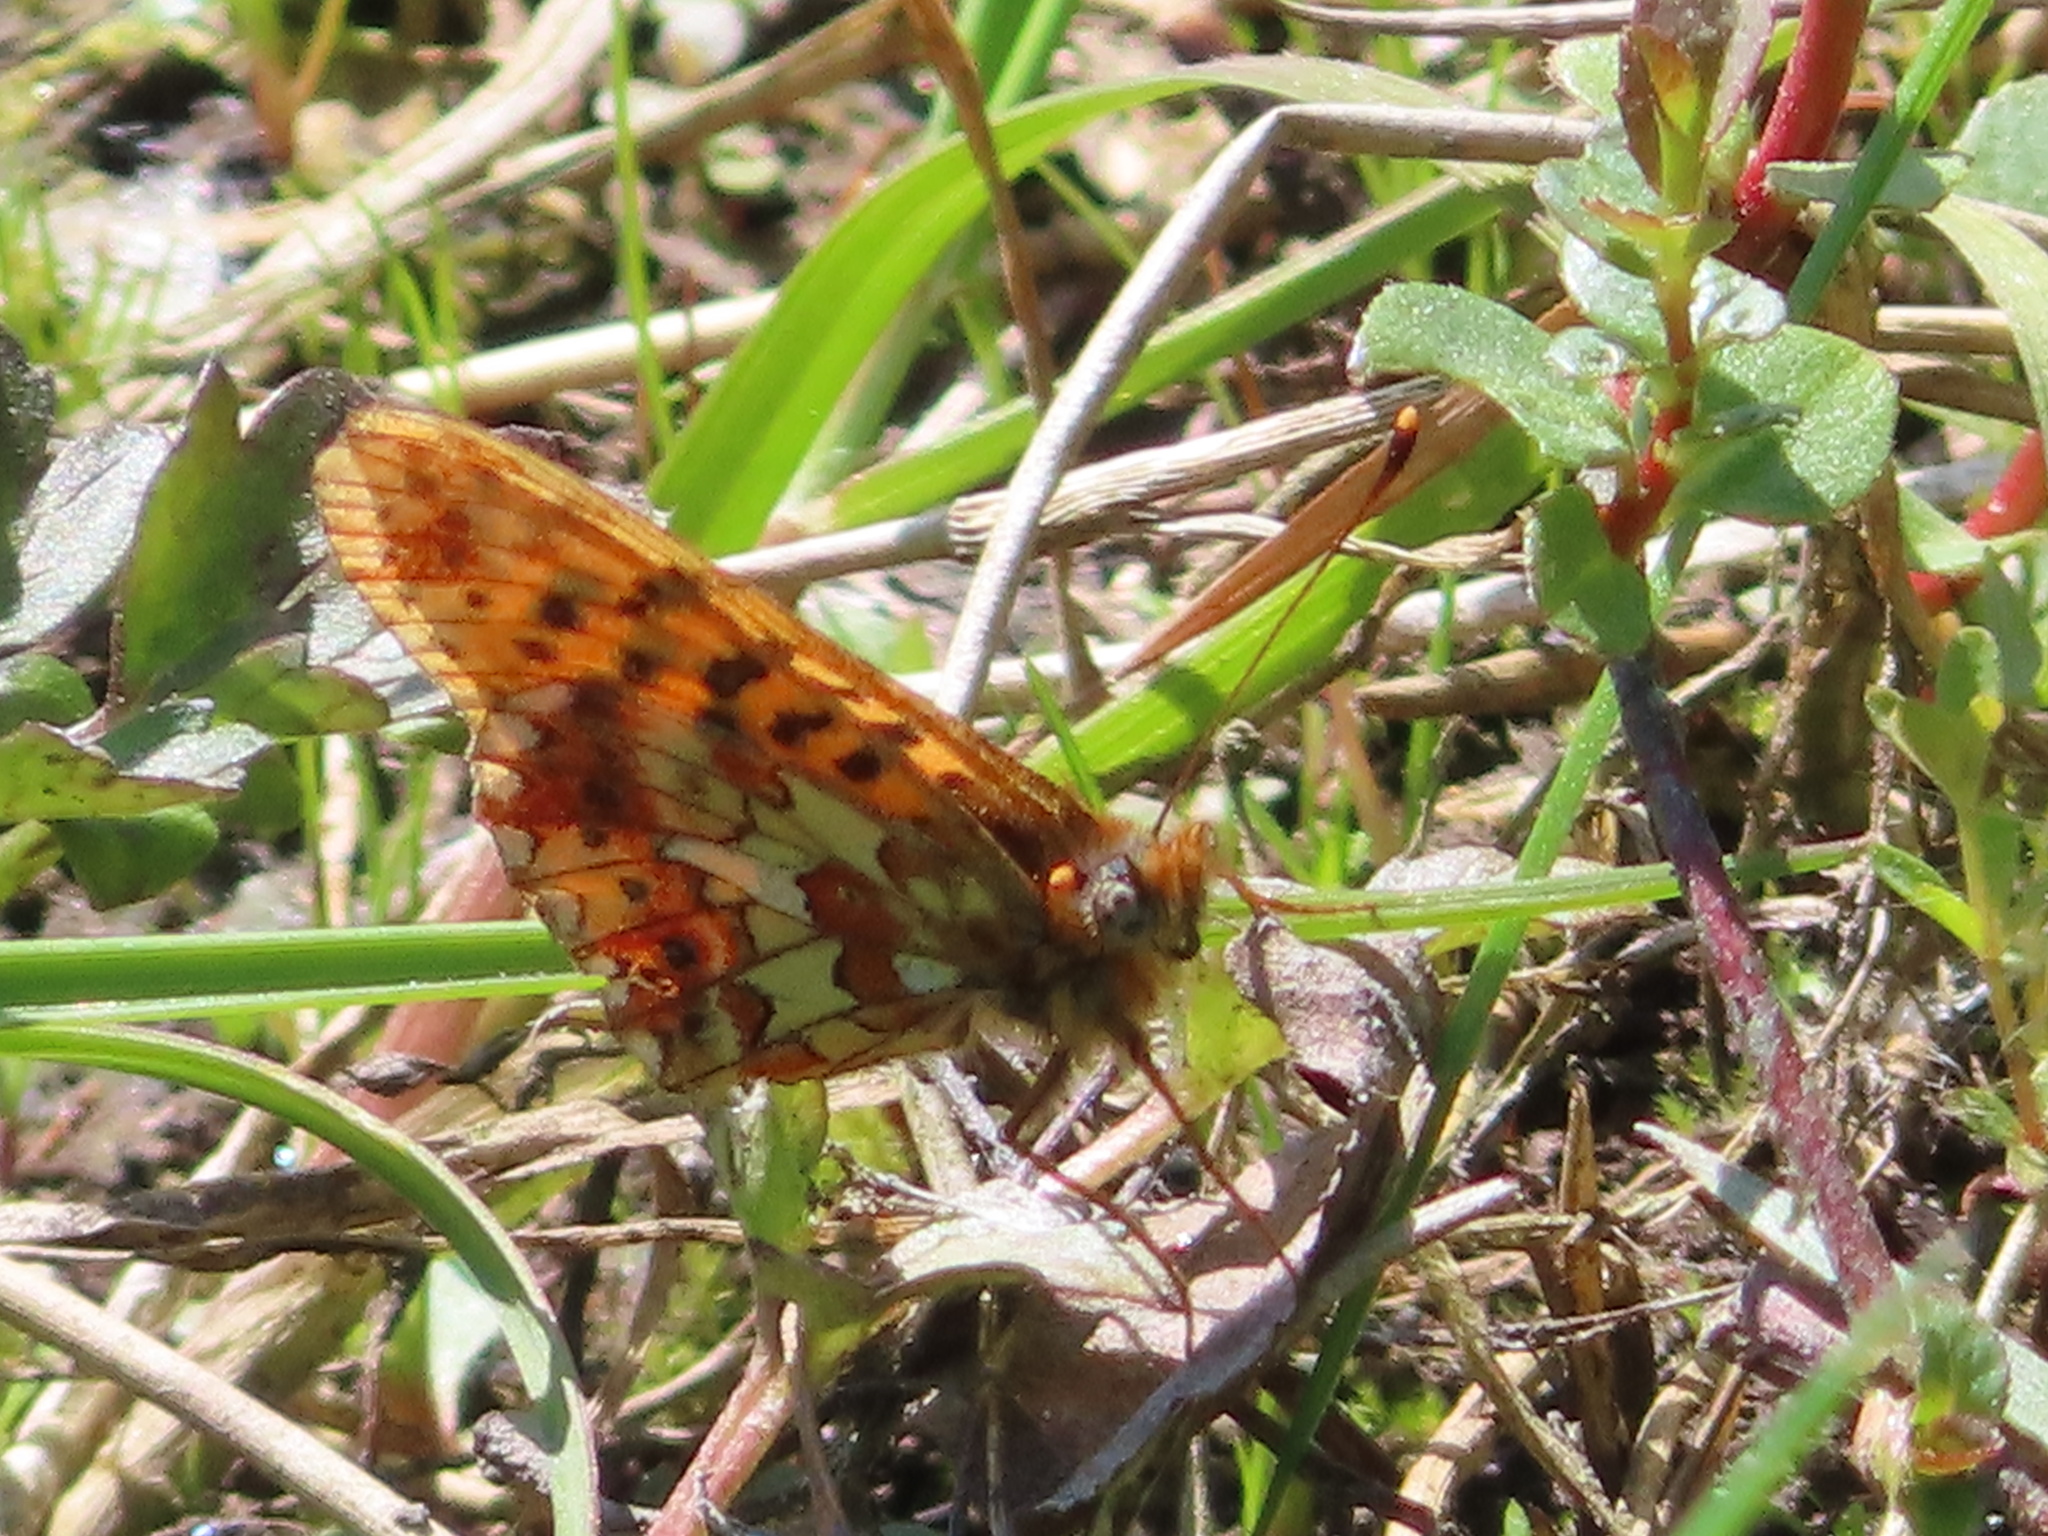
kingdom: Animalia
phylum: Arthropoda
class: Insecta
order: Lepidoptera
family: Nymphalidae
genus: Clossiana
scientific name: Clossiana euphrosyne
